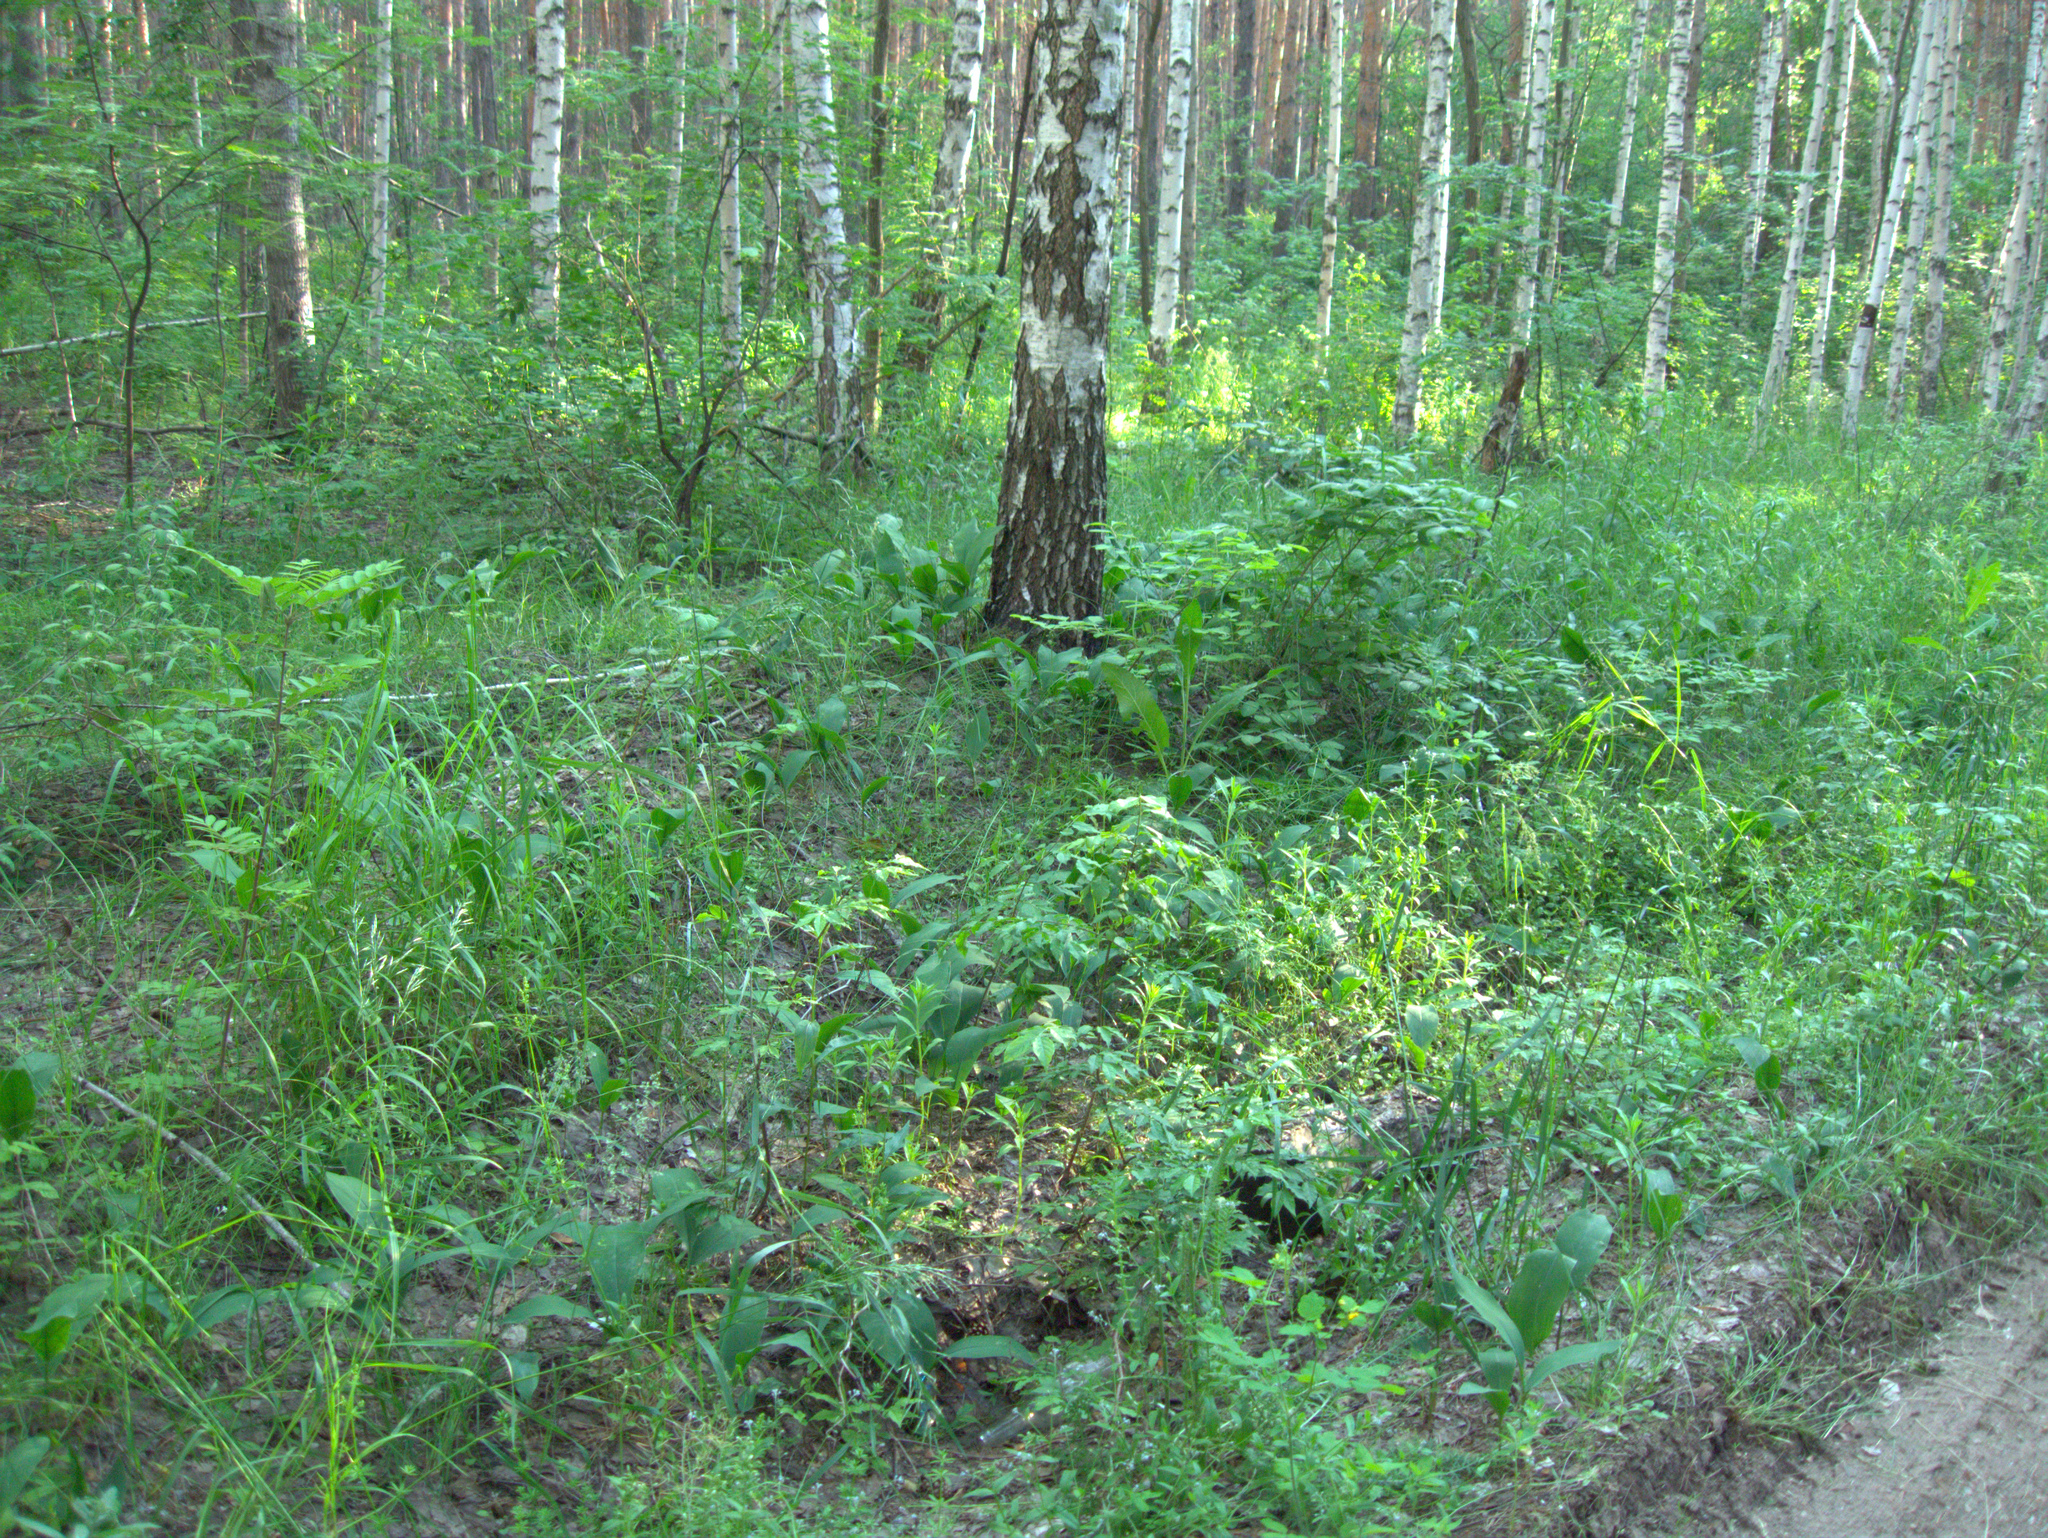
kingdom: Plantae
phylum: Tracheophyta
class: Liliopsida
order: Asparagales
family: Asparagaceae
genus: Convallaria
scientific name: Convallaria majalis
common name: Lily-of-the-valley
